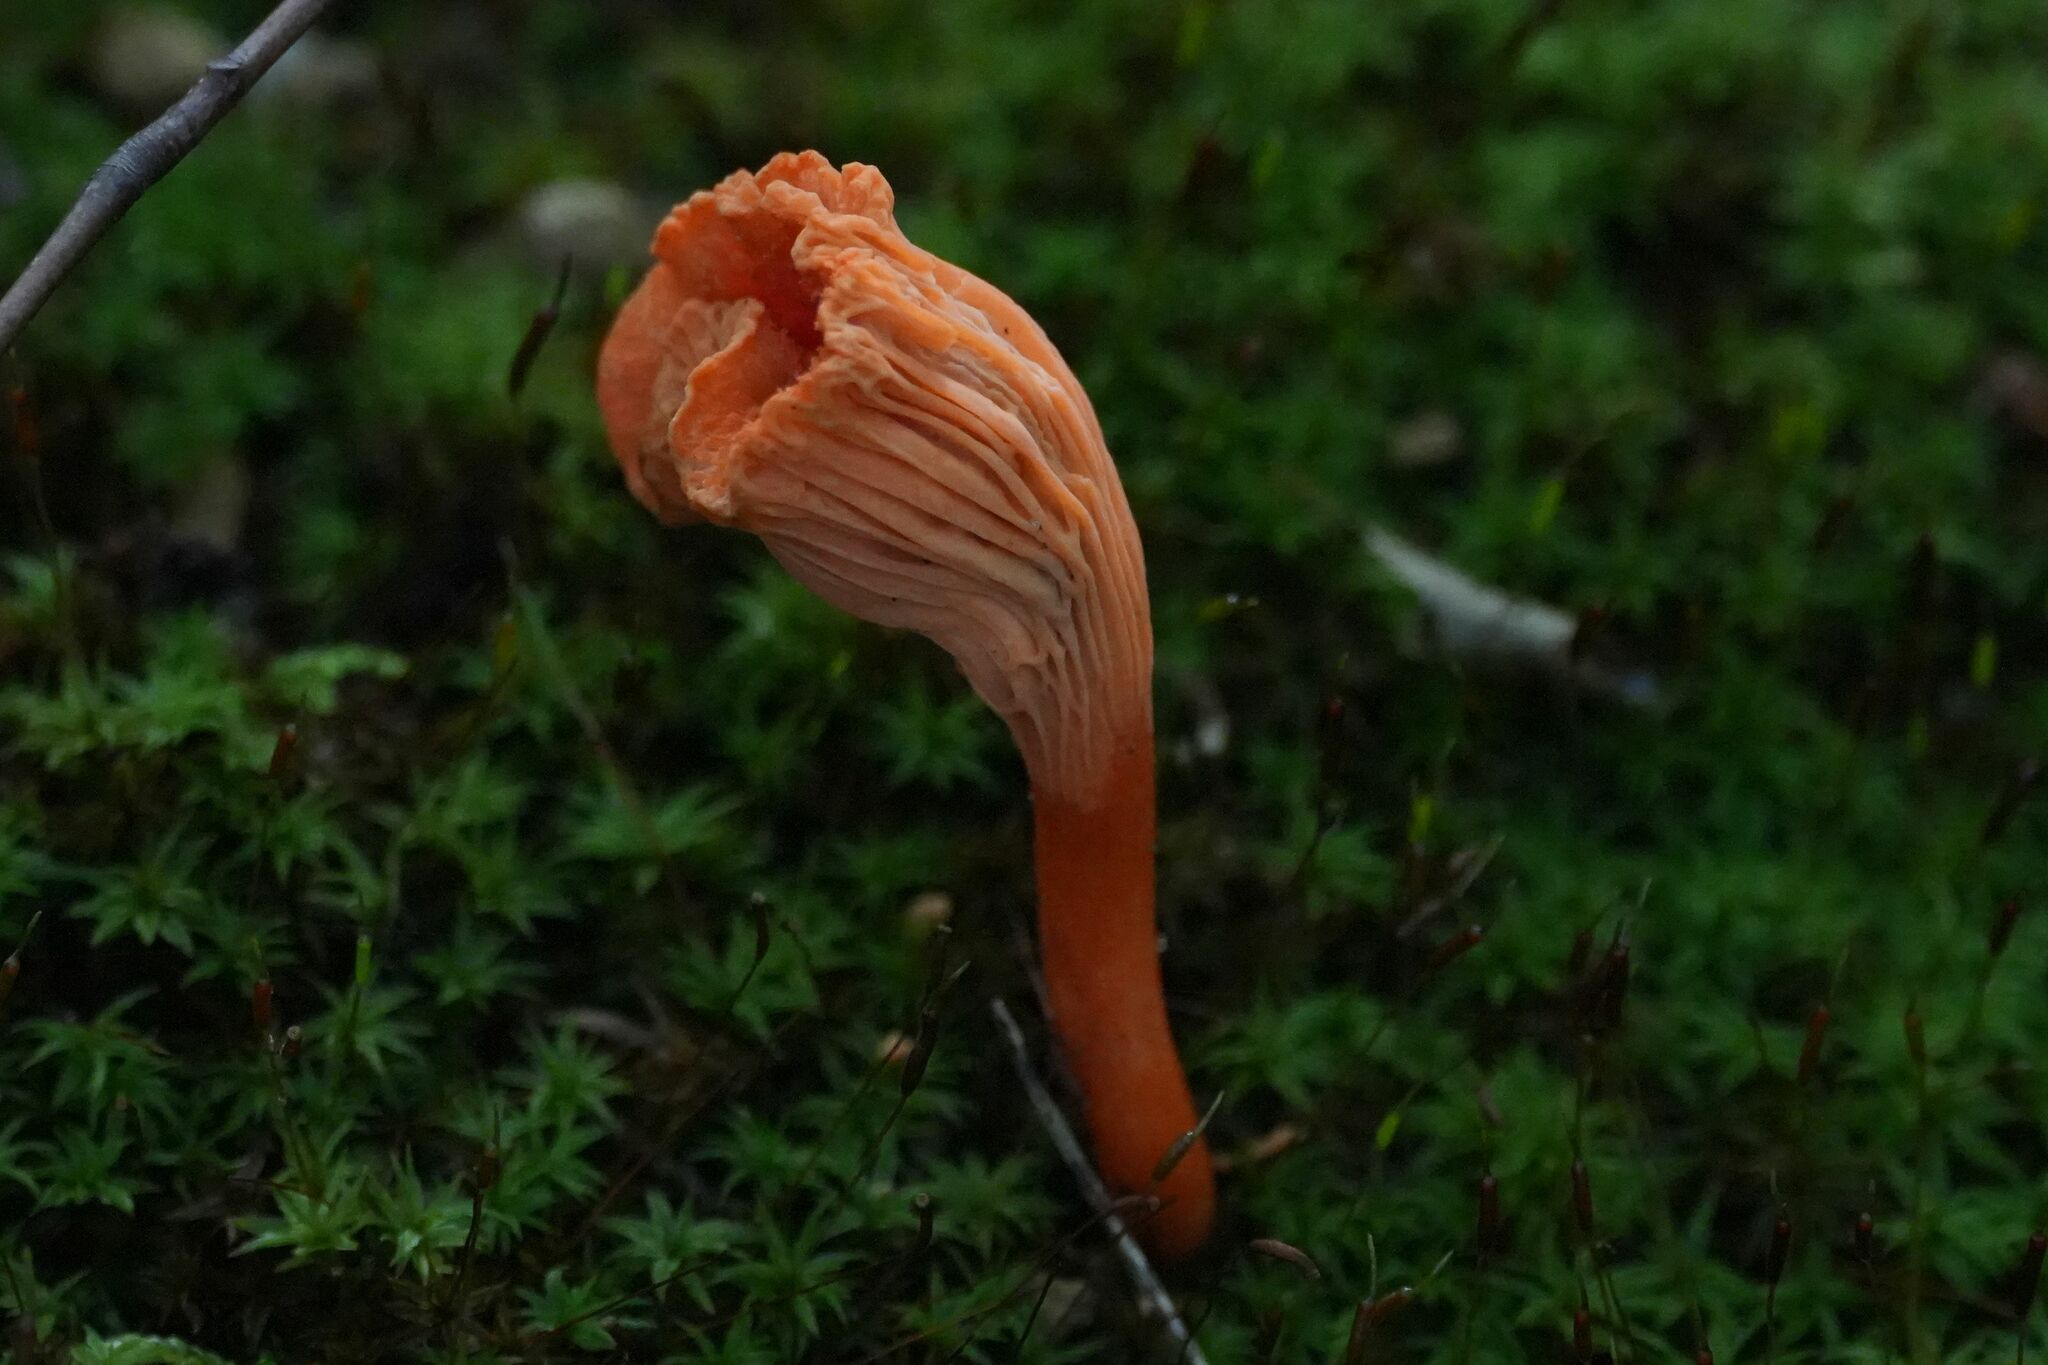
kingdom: Fungi
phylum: Basidiomycota
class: Agaricomycetes
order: Cantharellales
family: Hydnaceae
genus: Cantharellus
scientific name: Cantharellus cinnabarinus
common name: Cinnabar chanterelle
